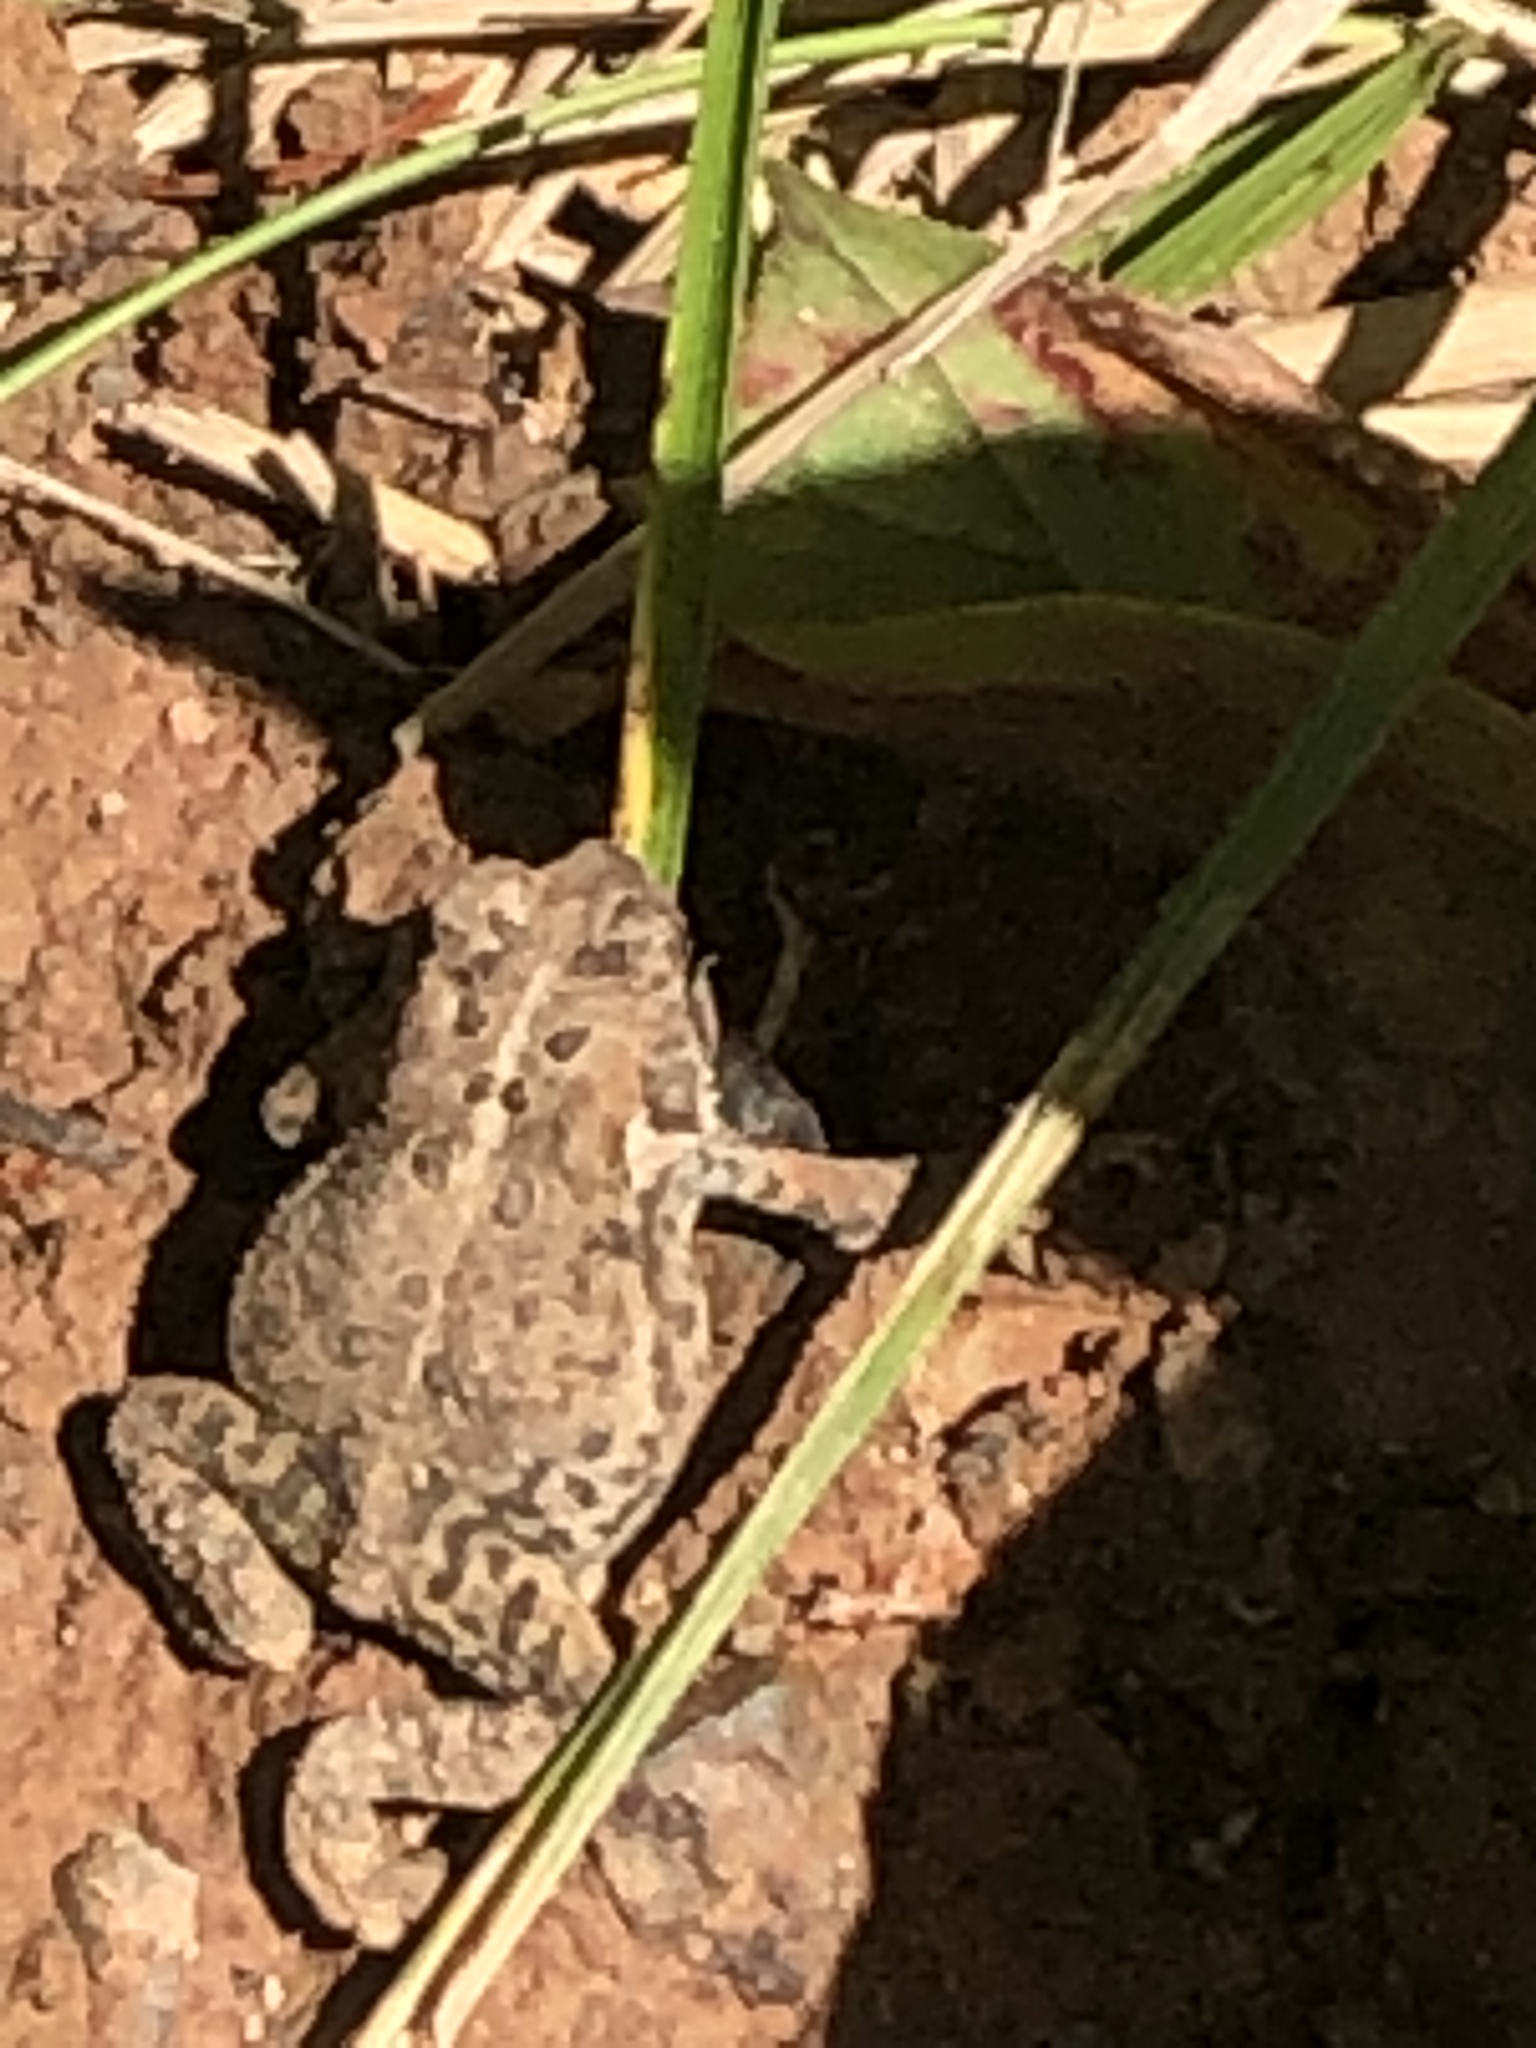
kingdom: Animalia
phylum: Chordata
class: Amphibia
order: Anura
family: Bufonidae
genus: Anaxyrus
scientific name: Anaxyrus americanus
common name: American toad
